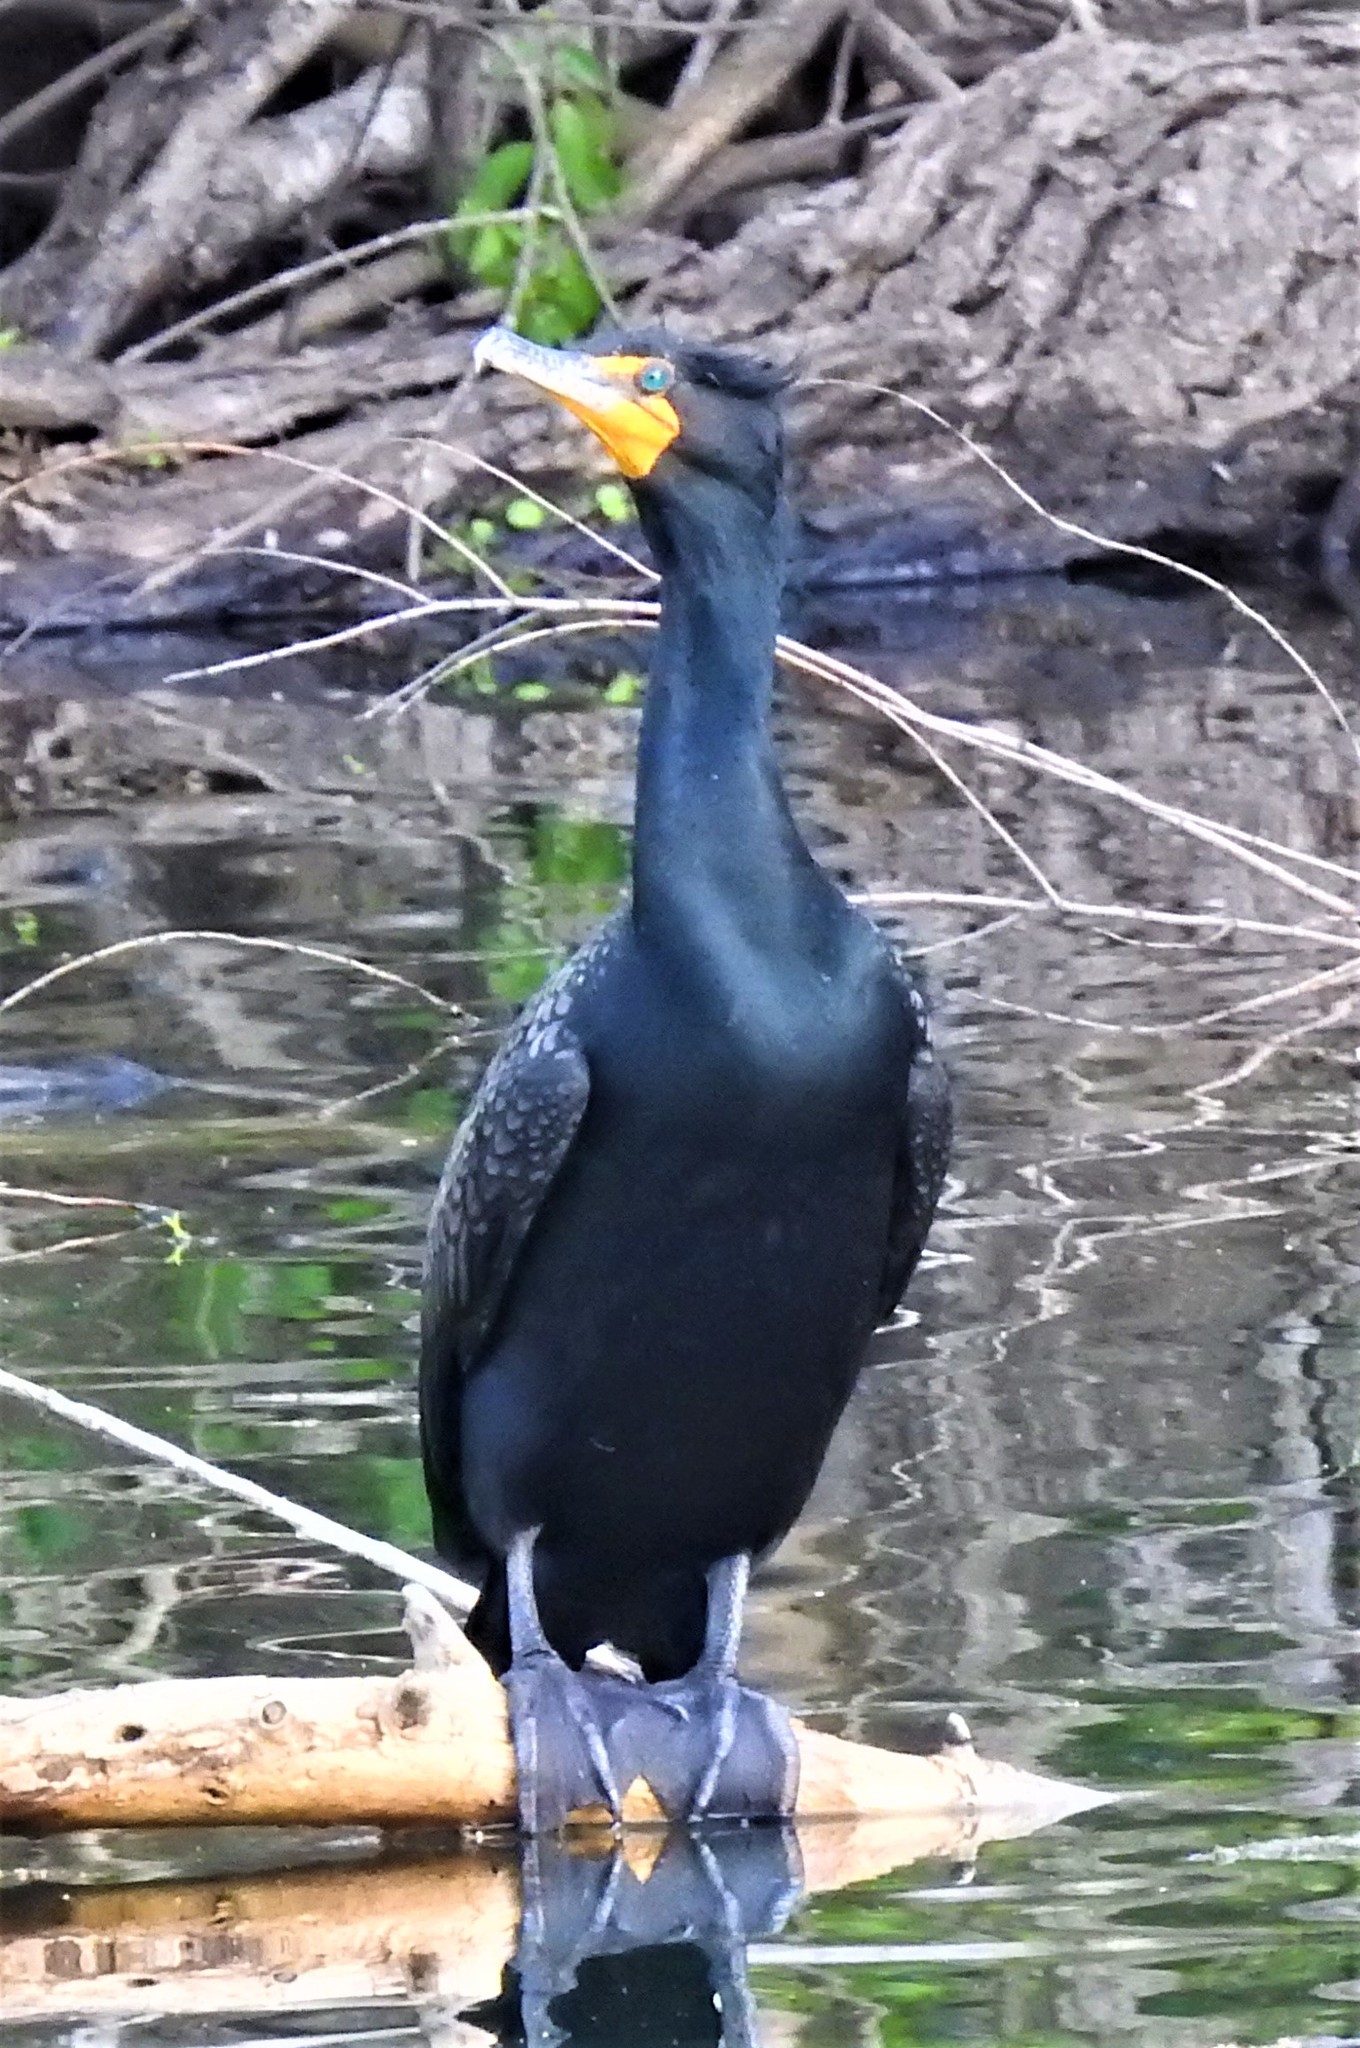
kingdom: Animalia
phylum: Chordata
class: Aves
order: Suliformes
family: Phalacrocoracidae
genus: Phalacrocorax
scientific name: Phalacrocorax auritus
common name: Double-crested cormorant
